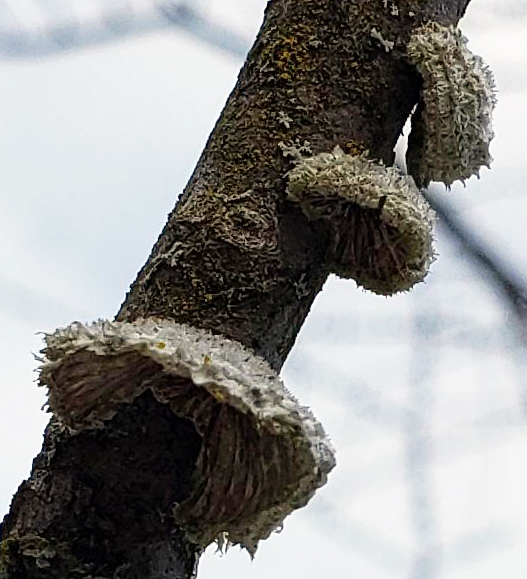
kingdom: Fungi
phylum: Basidiomycota
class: Agaricomycetes
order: Agaricales
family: Schizophyllaceae
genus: Schizophyllum
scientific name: Schizophyllum commune
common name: Common porecrust
